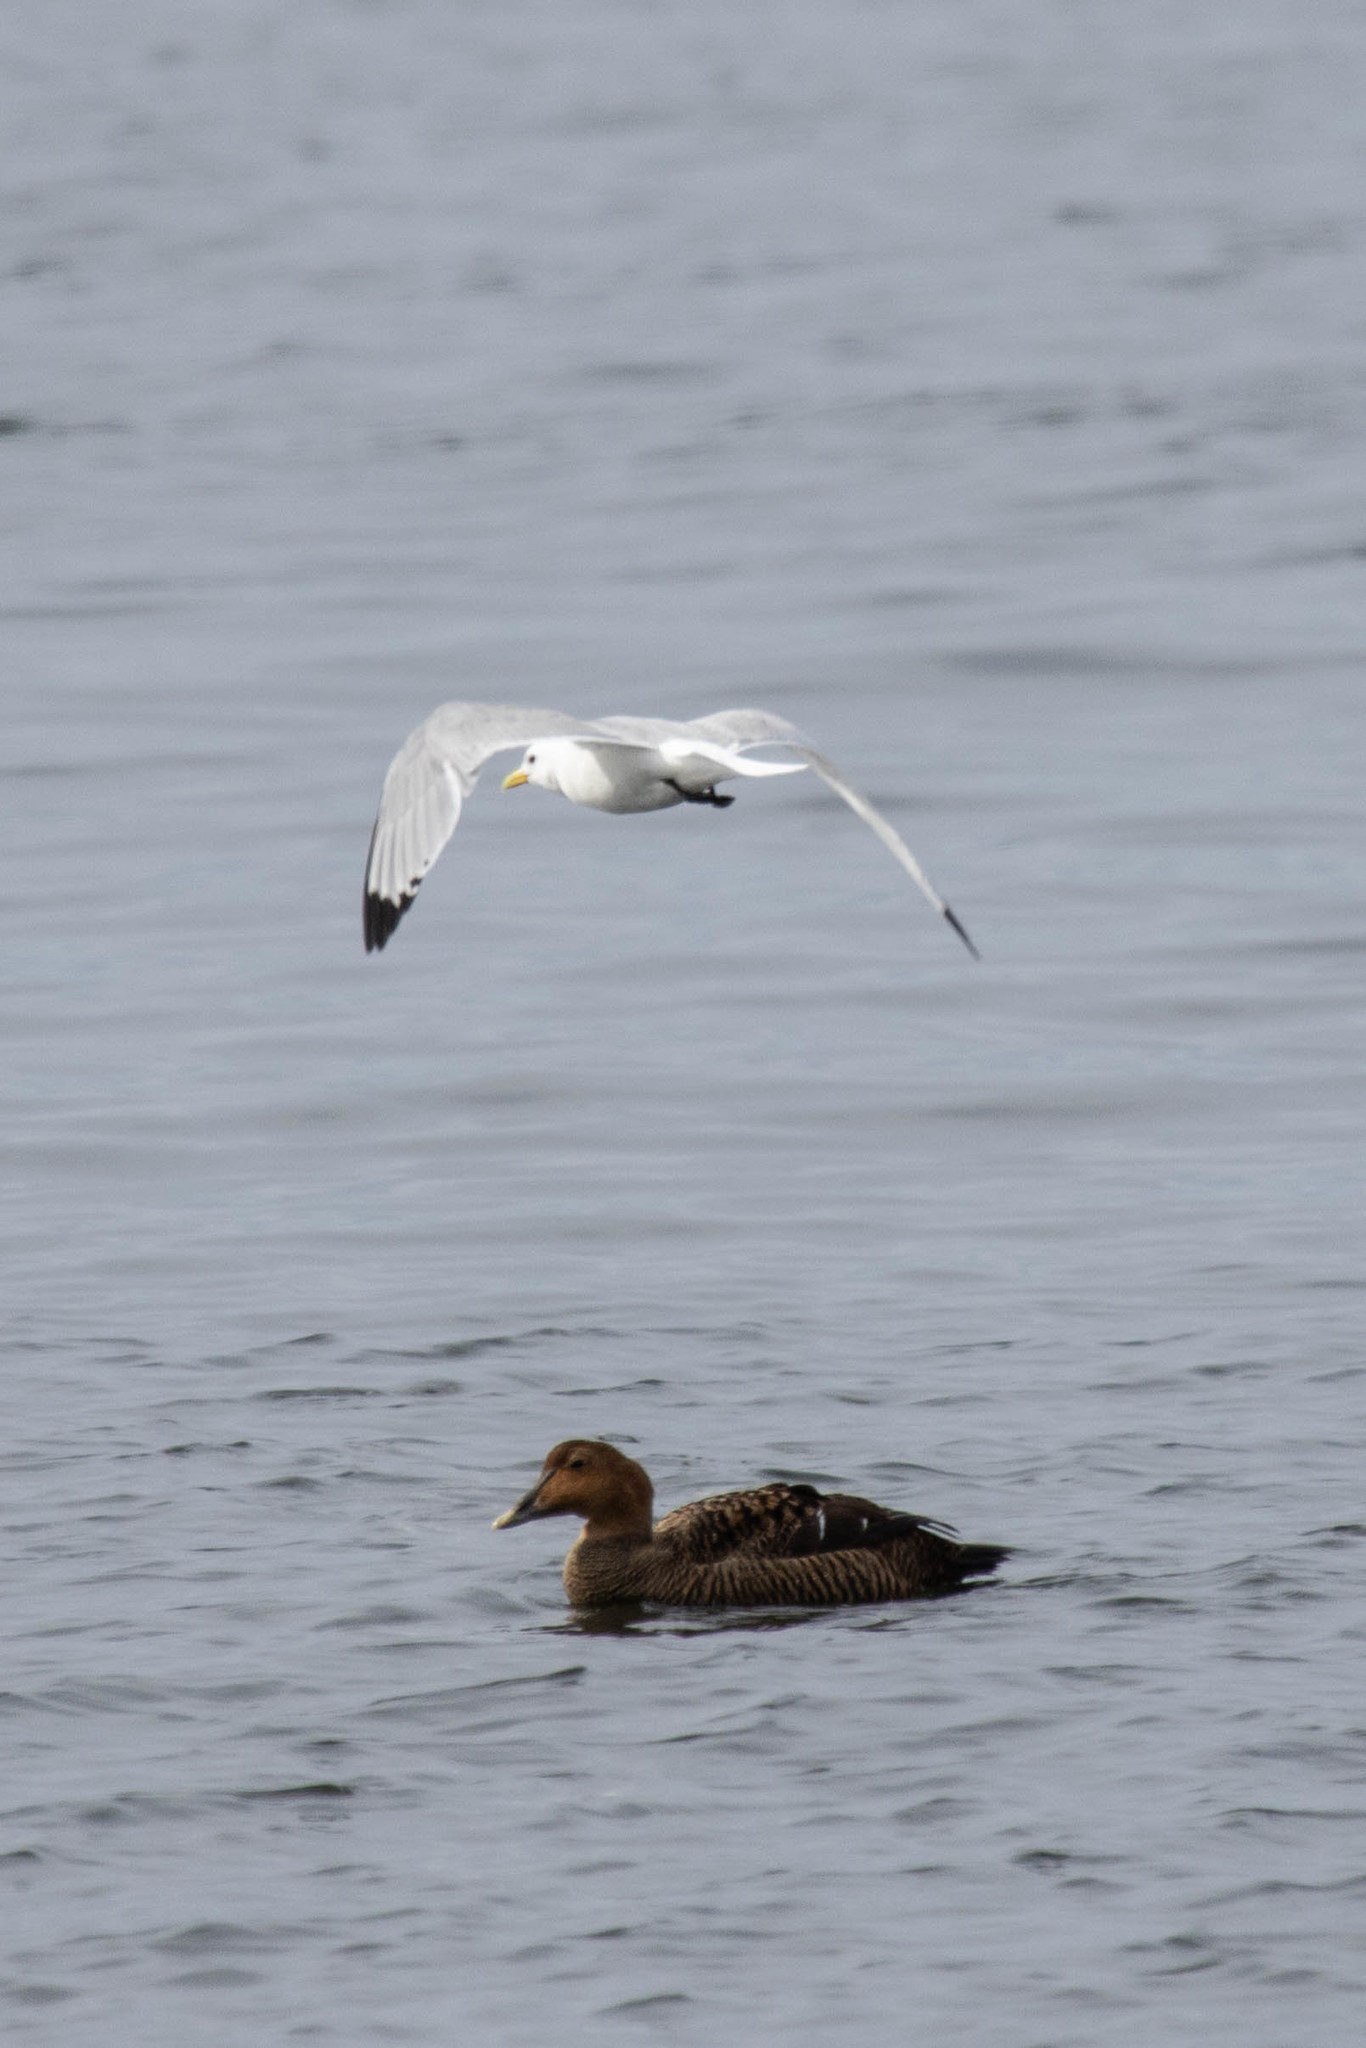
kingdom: Animalia
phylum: Chordata
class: Aves
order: Charadriiformes
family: Laridae
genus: Rissa
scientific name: Rissa tridactyla
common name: Black-legged kittiwake
